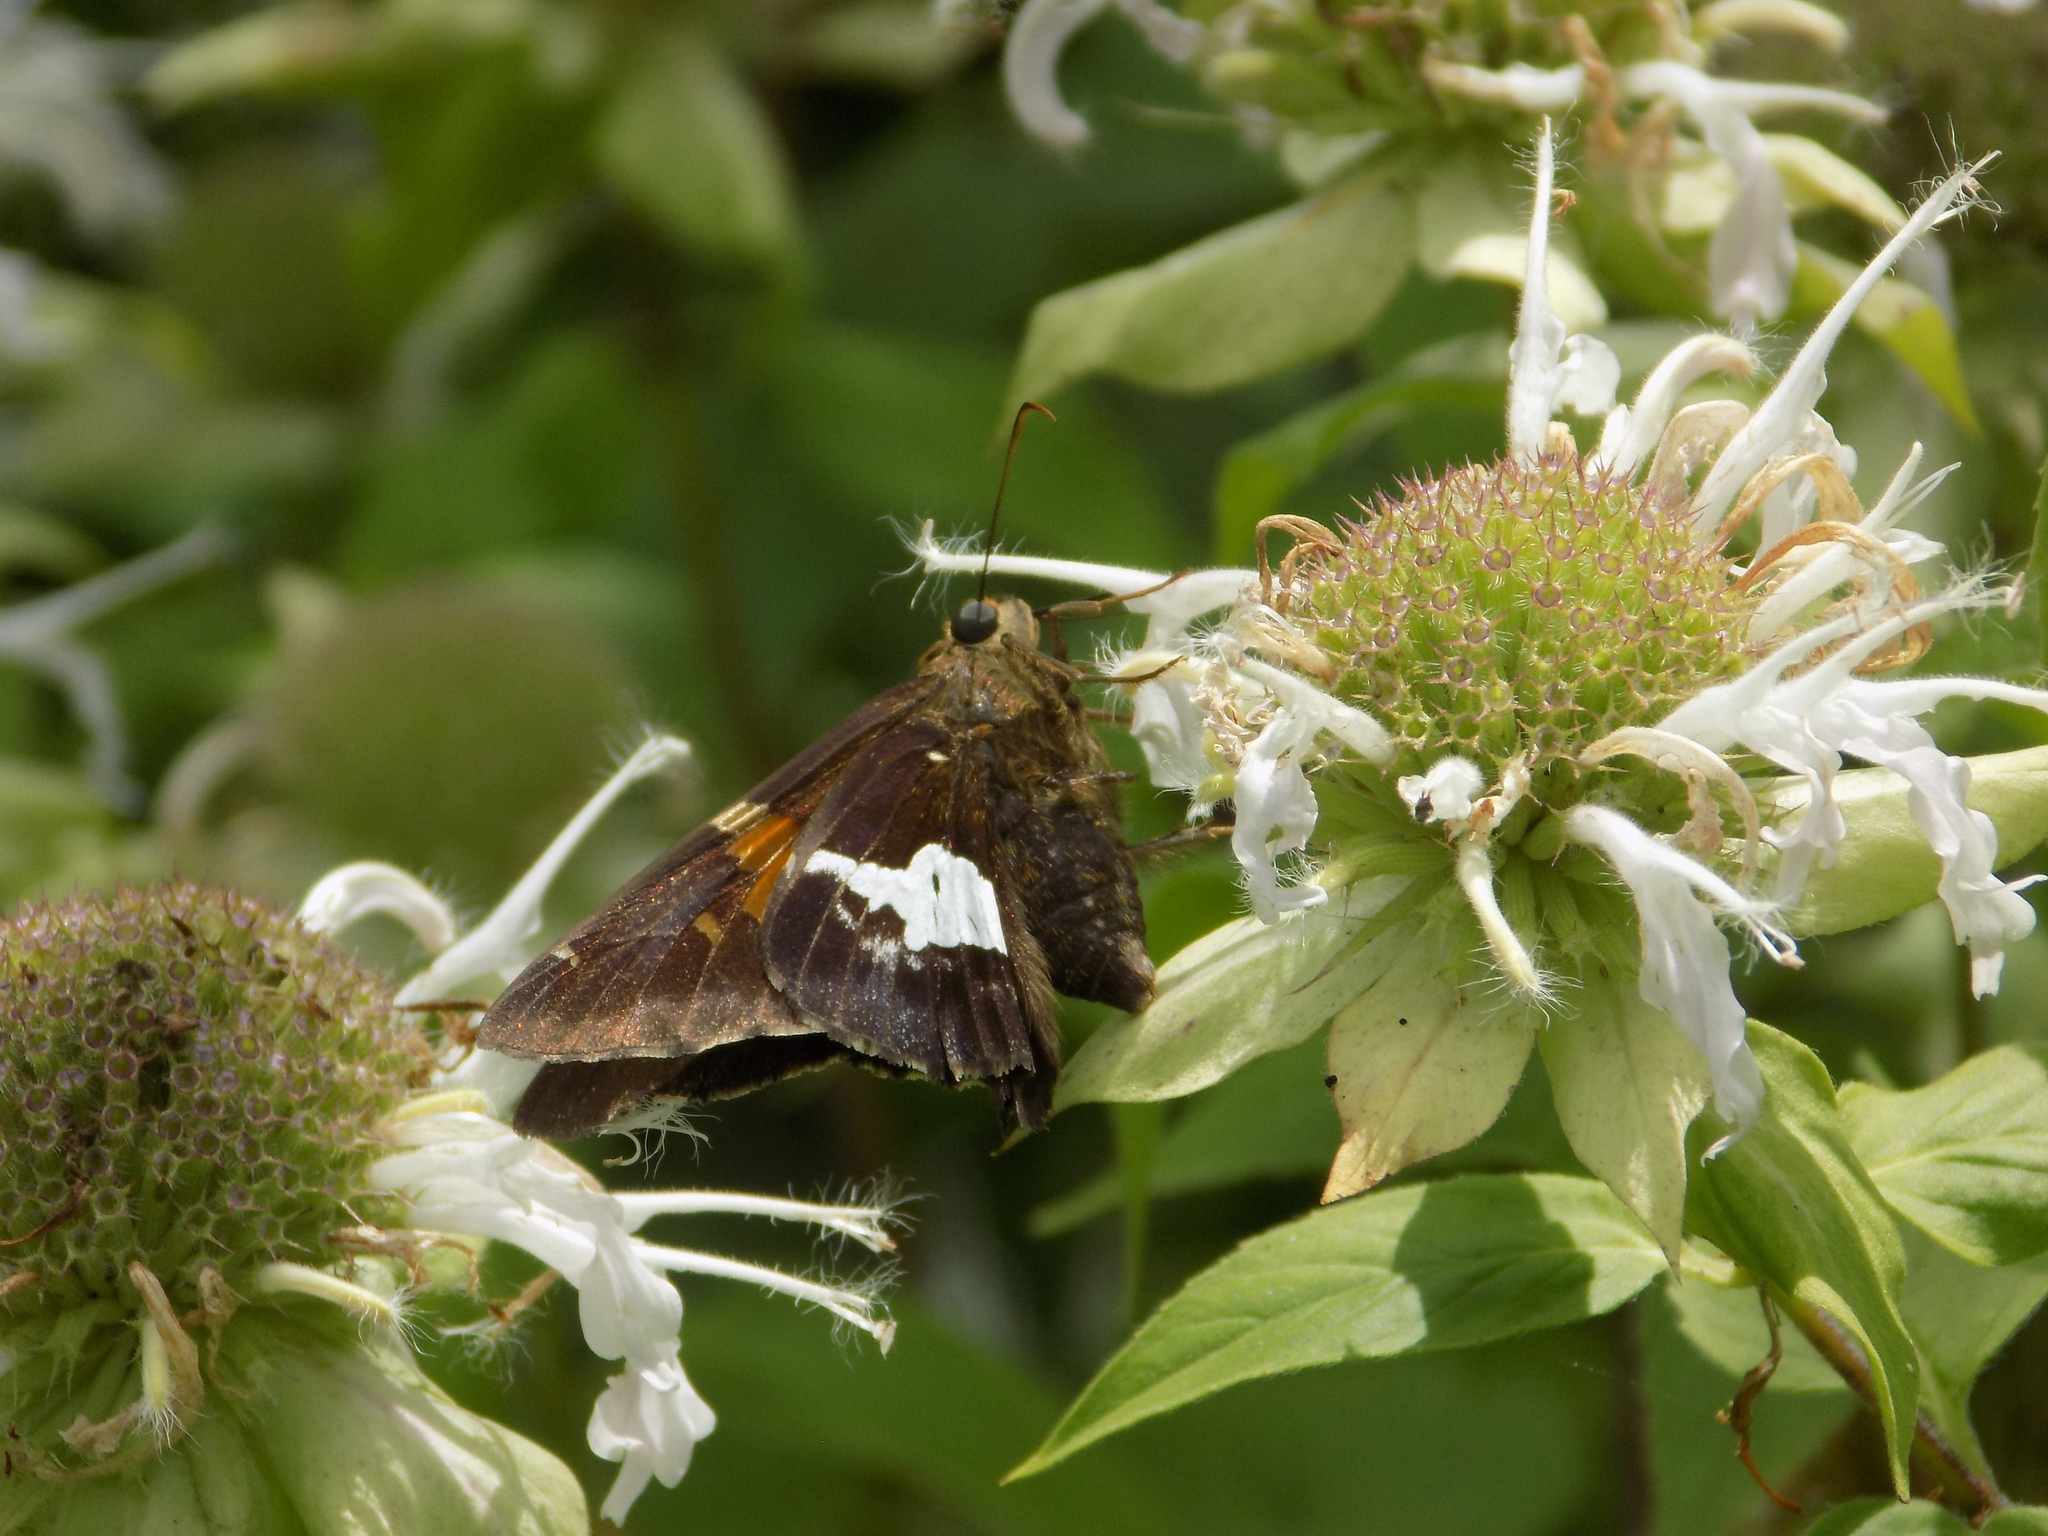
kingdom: Animalia
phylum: Arthropoda
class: Insecta
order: Lepidoptera
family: Hesperiidae
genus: Epargyreus
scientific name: Epargyreus clarus
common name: Silver-spotted skipper
